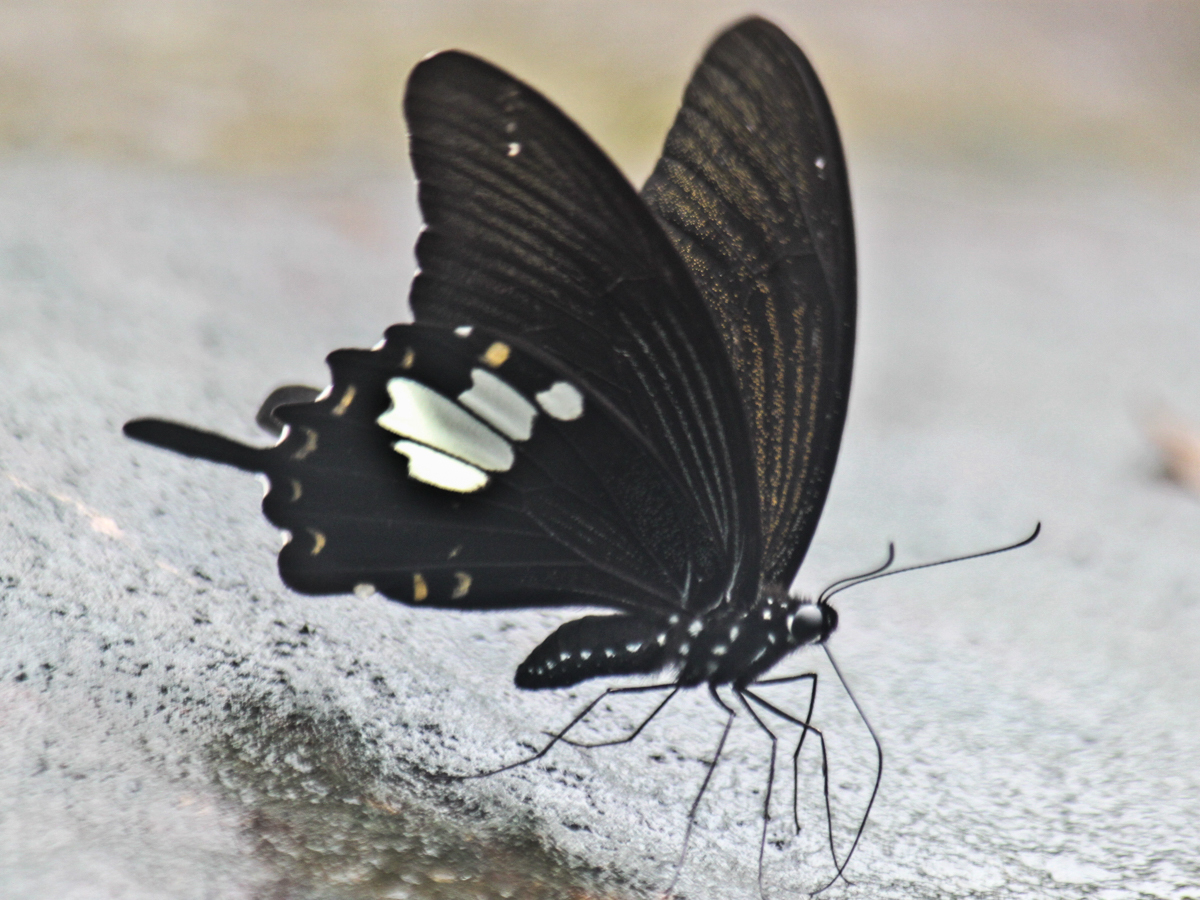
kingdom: Animalia
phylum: Arthropoda
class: Insecta
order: Lepidoptera
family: Papilionidae
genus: Atrophaneura
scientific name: Atrophaneura varuna
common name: Common batwing
